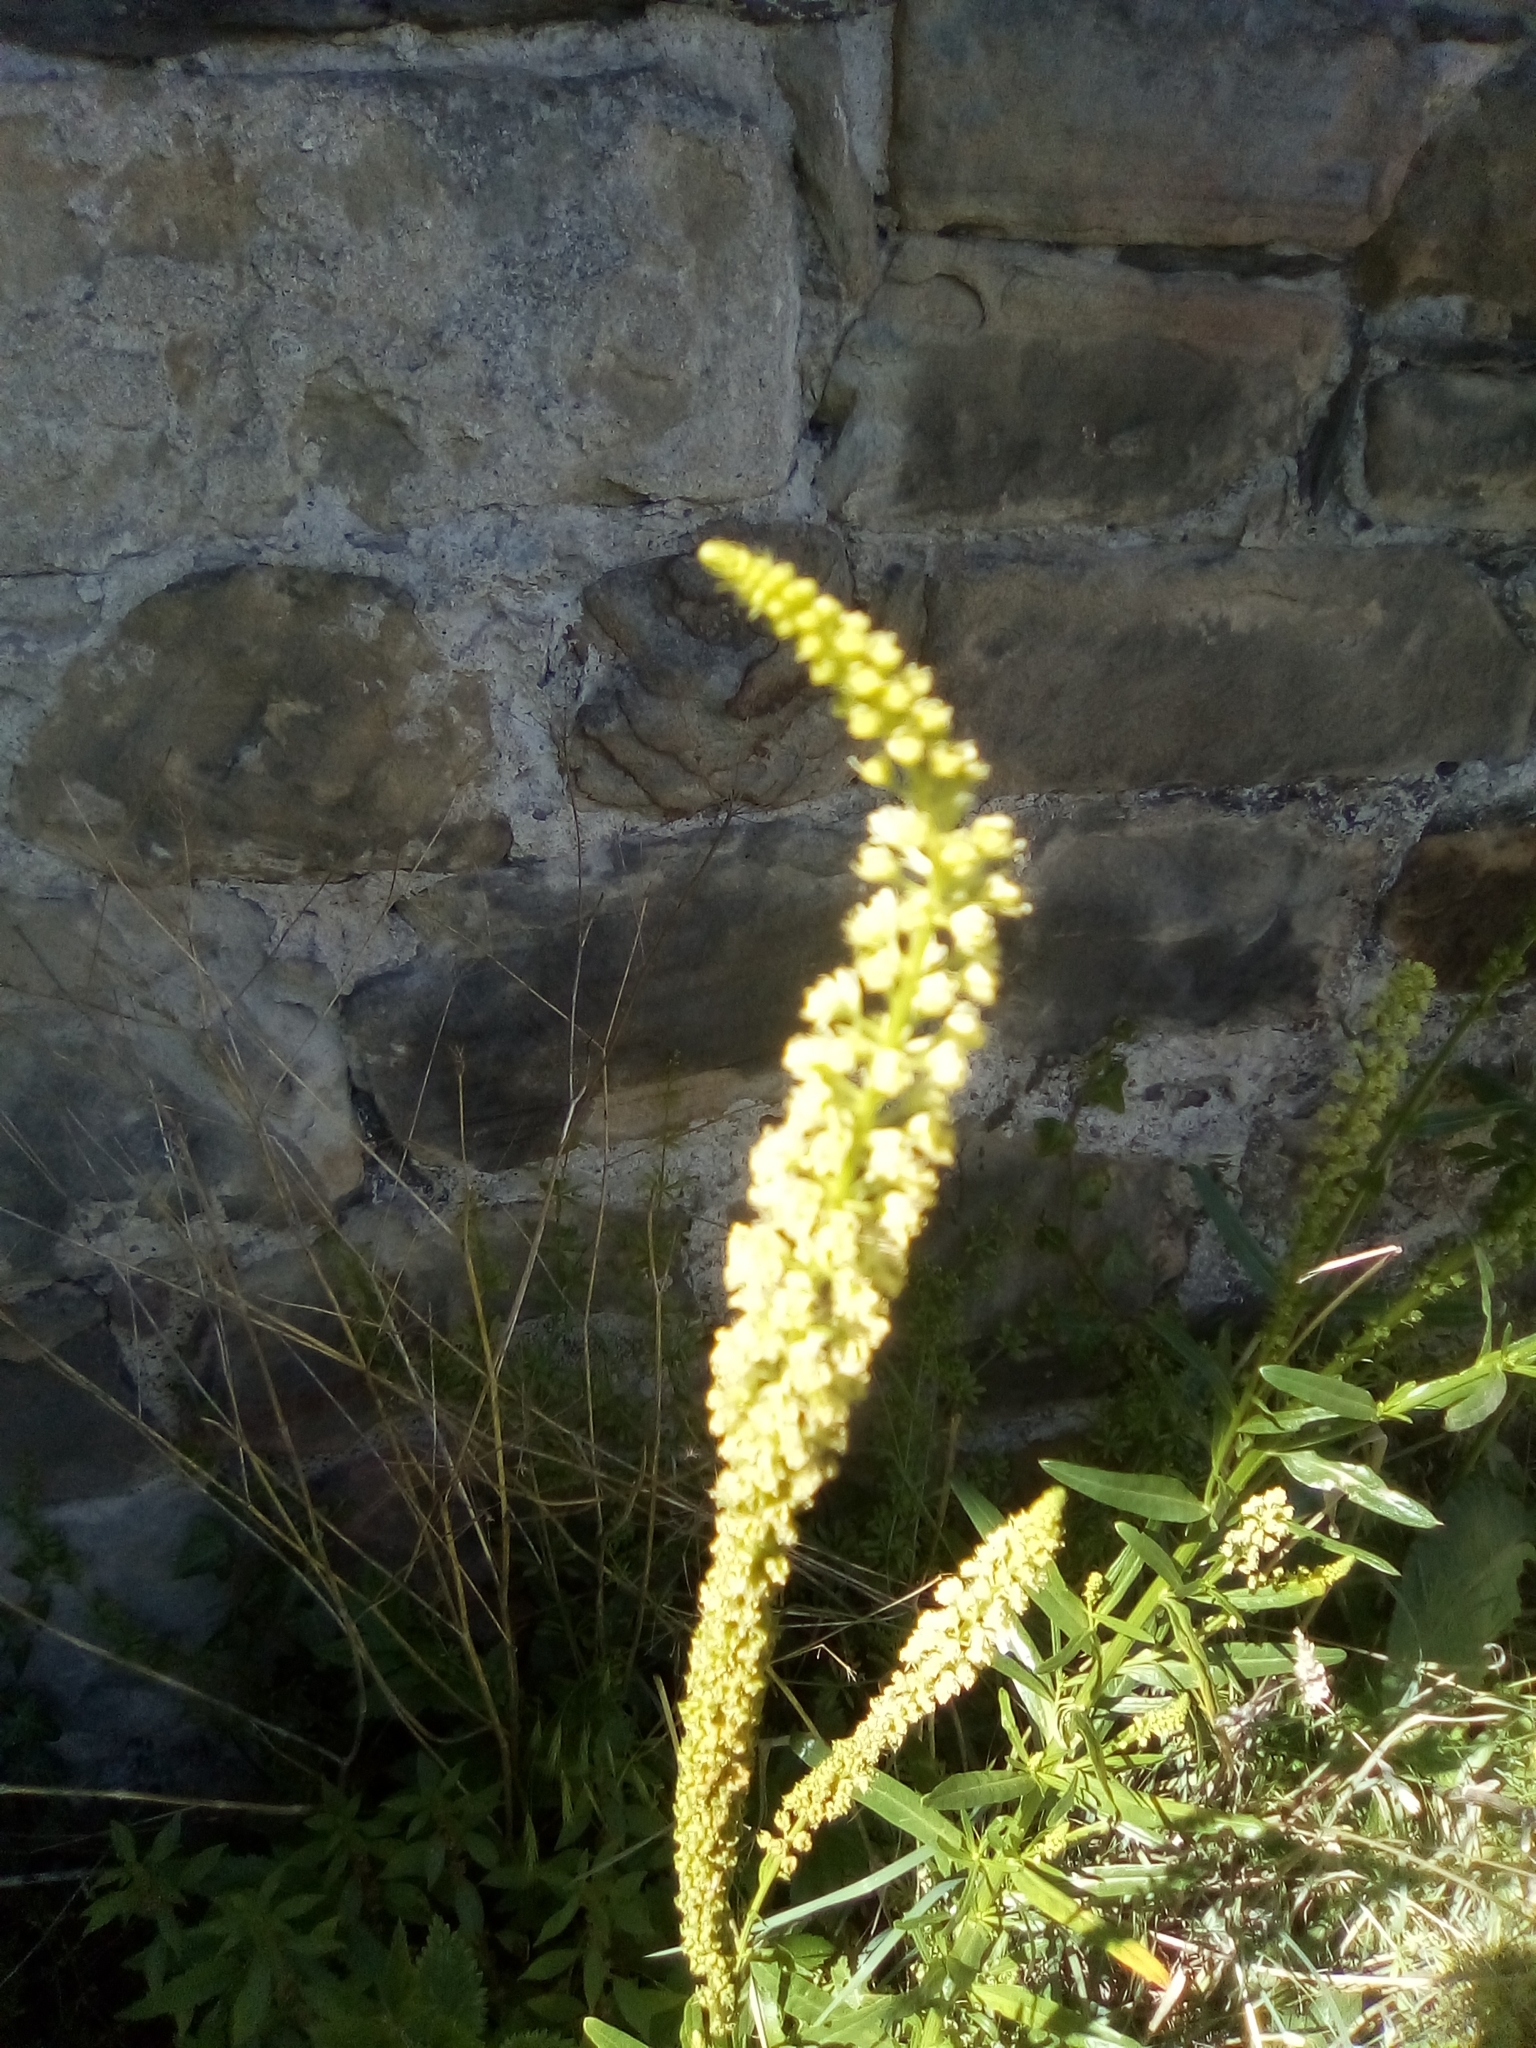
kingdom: Plantae
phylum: Tracheophyta
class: Magnoliopsida
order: Brassicales
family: Resedaceae
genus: Reseda
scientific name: Reseda luteola
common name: Weld
